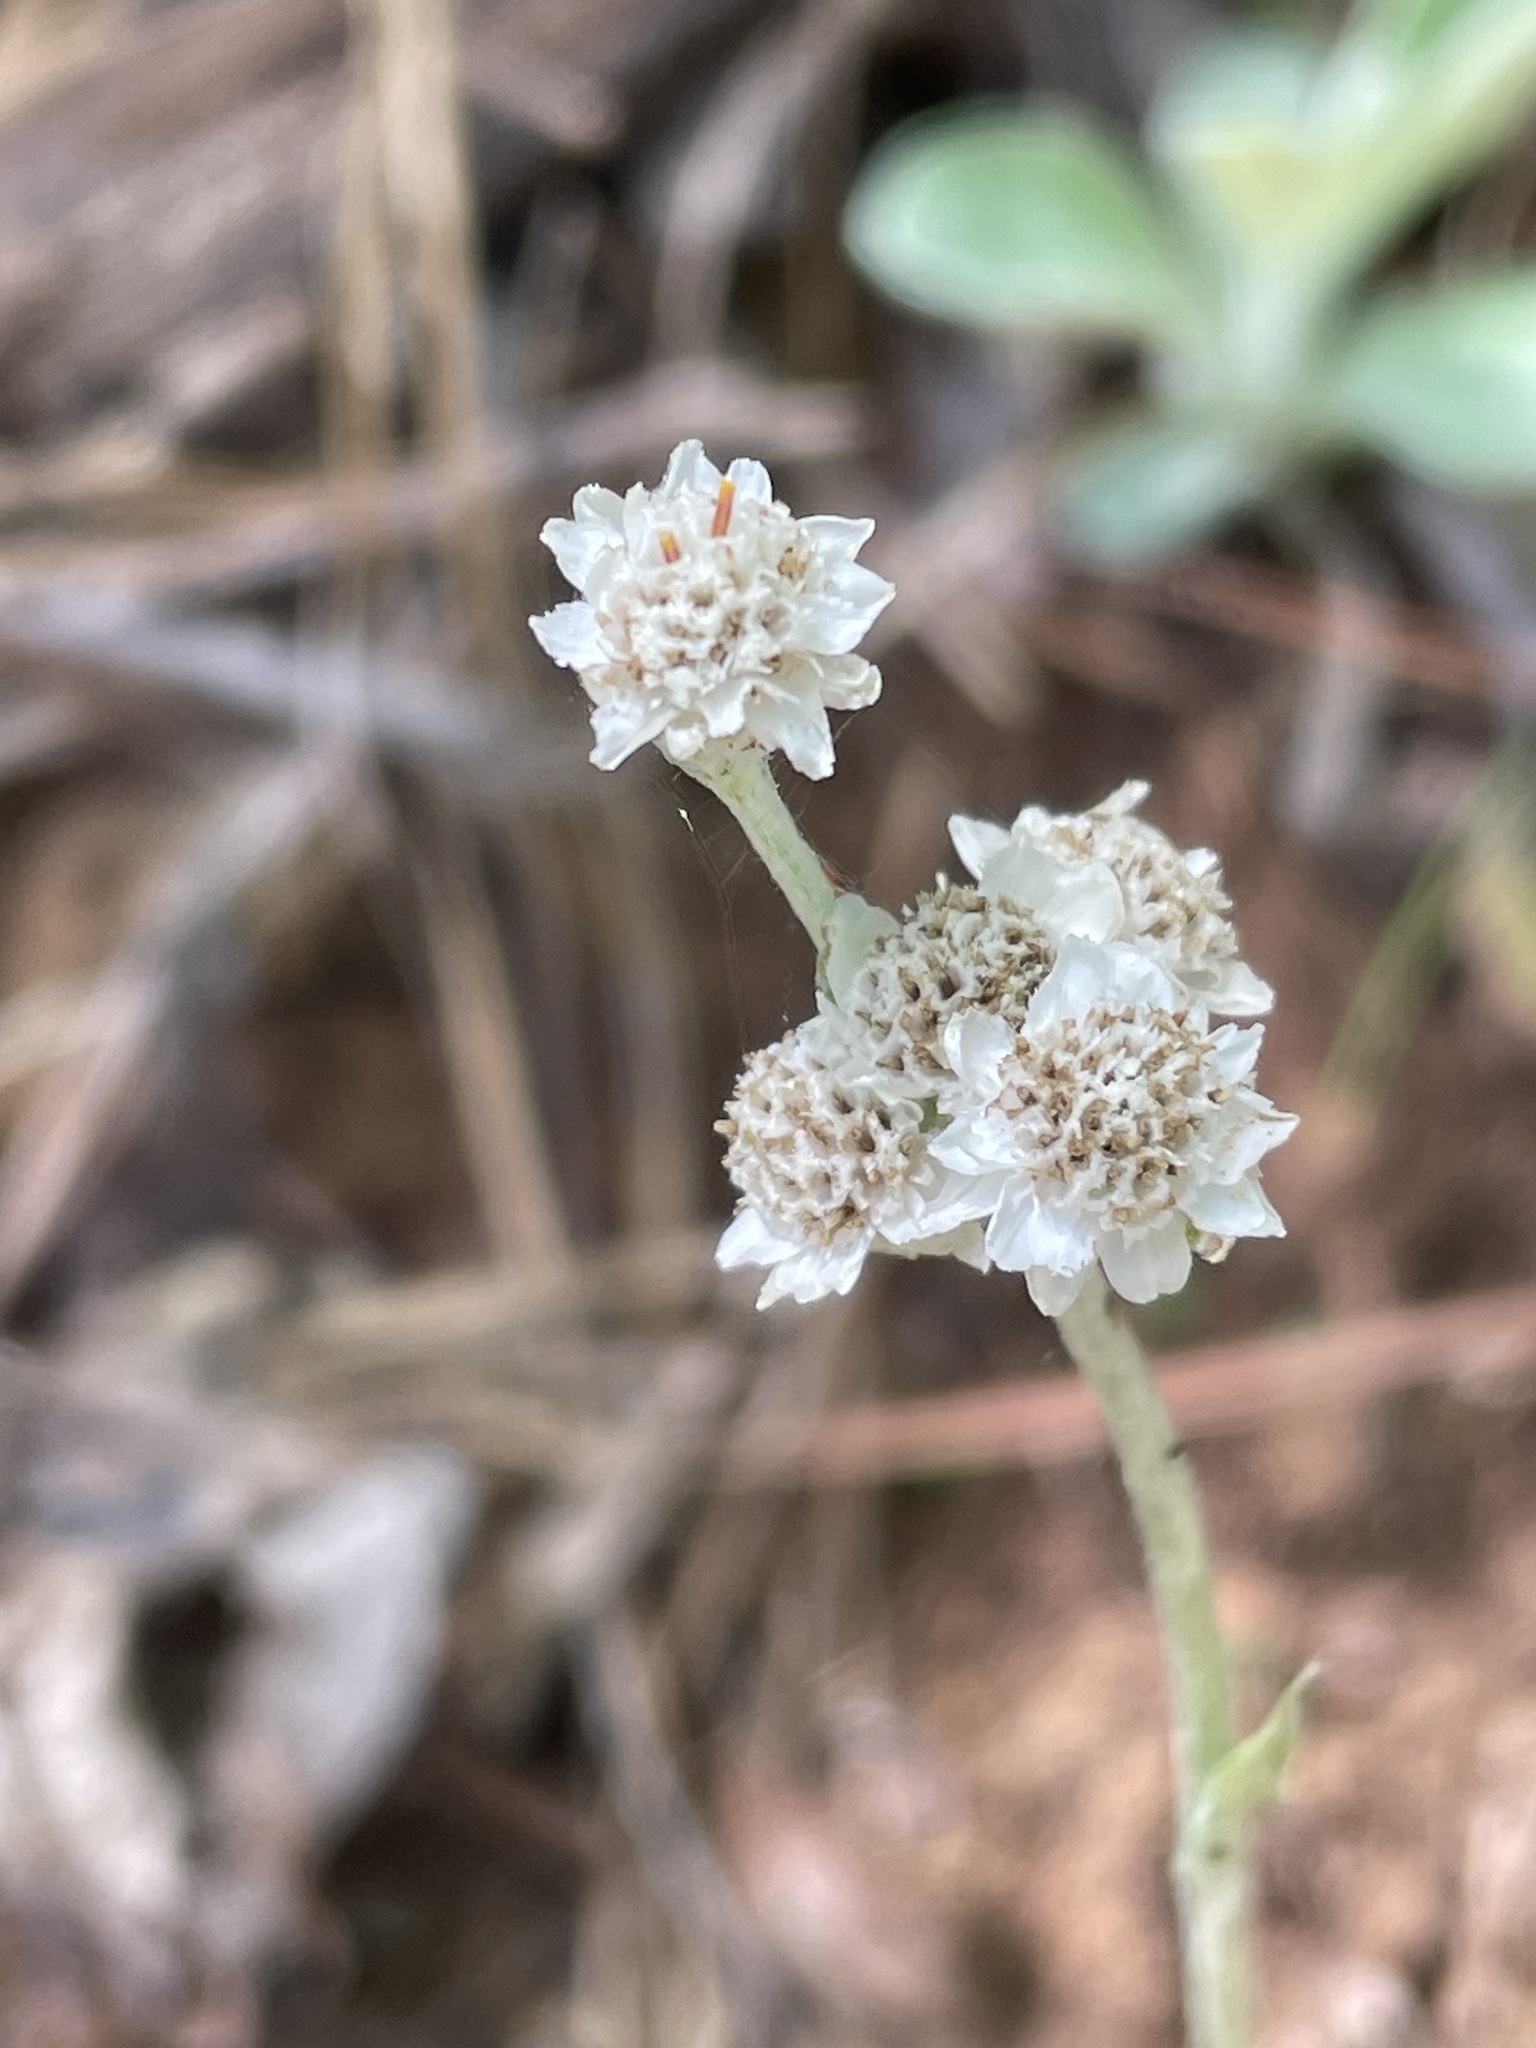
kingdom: Plantae
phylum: Tracheophyta
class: Magnoliopsida
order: Asterales
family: Asteraceae
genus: Antennaria
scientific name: Antennaria parlinii
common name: Parlin's pussytoes
